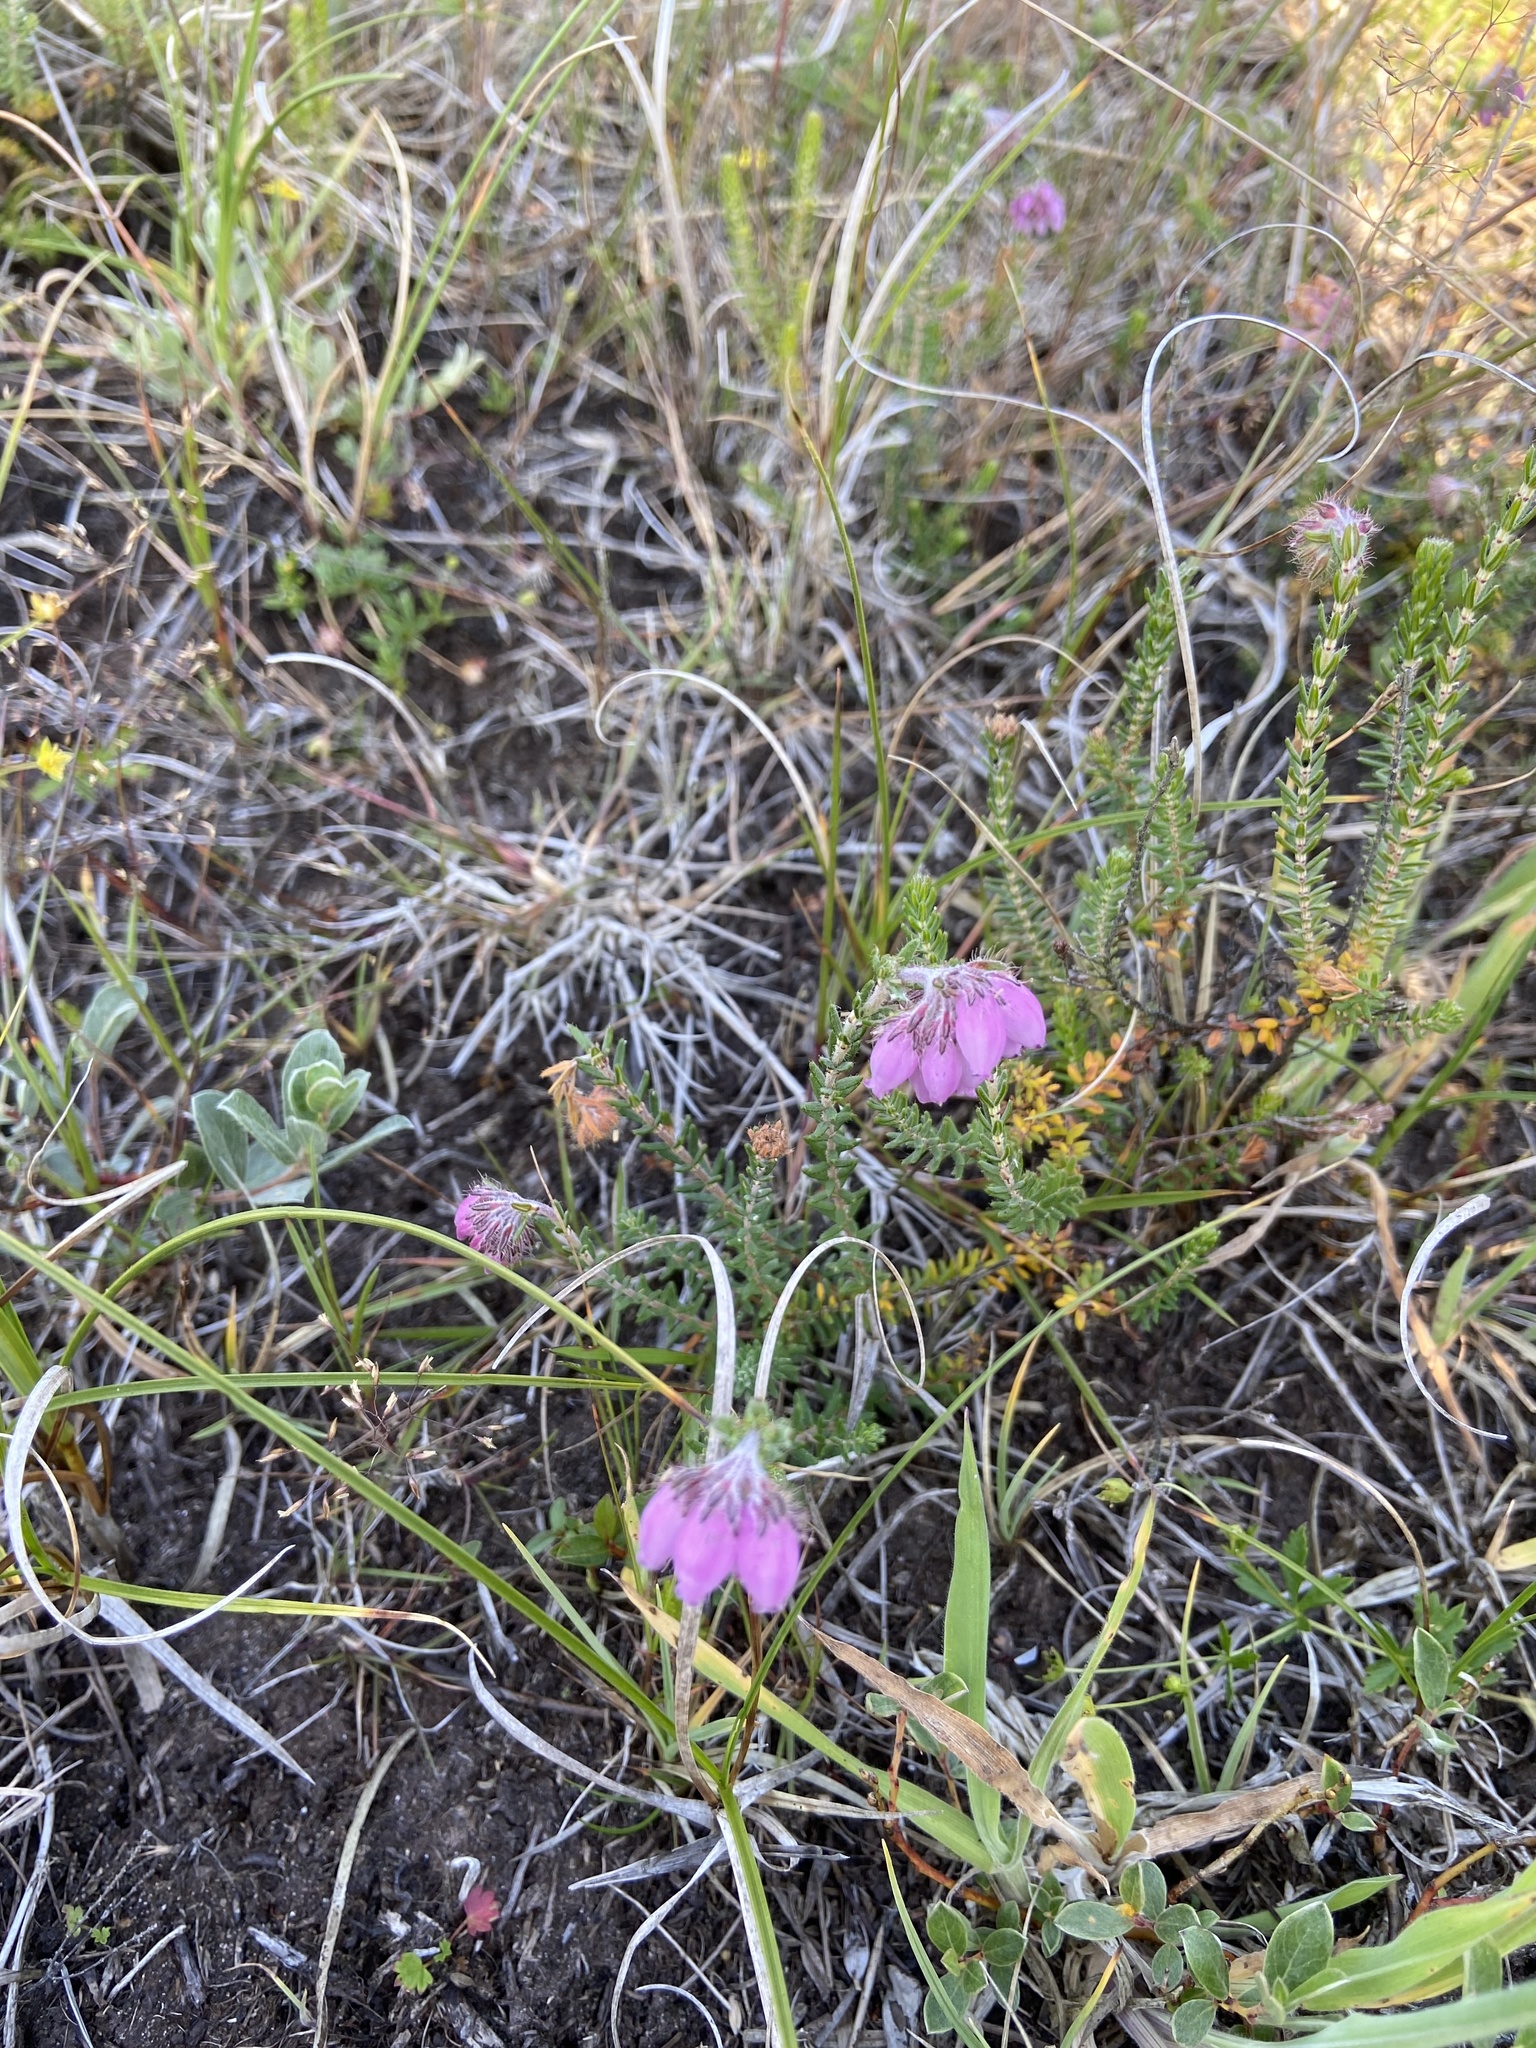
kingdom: Plantae
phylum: Tracheophyta
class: Magnoliopsida
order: Ericales
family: Ericaceae
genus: Erica
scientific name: Erica tetralix
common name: Cross-leaved heath
